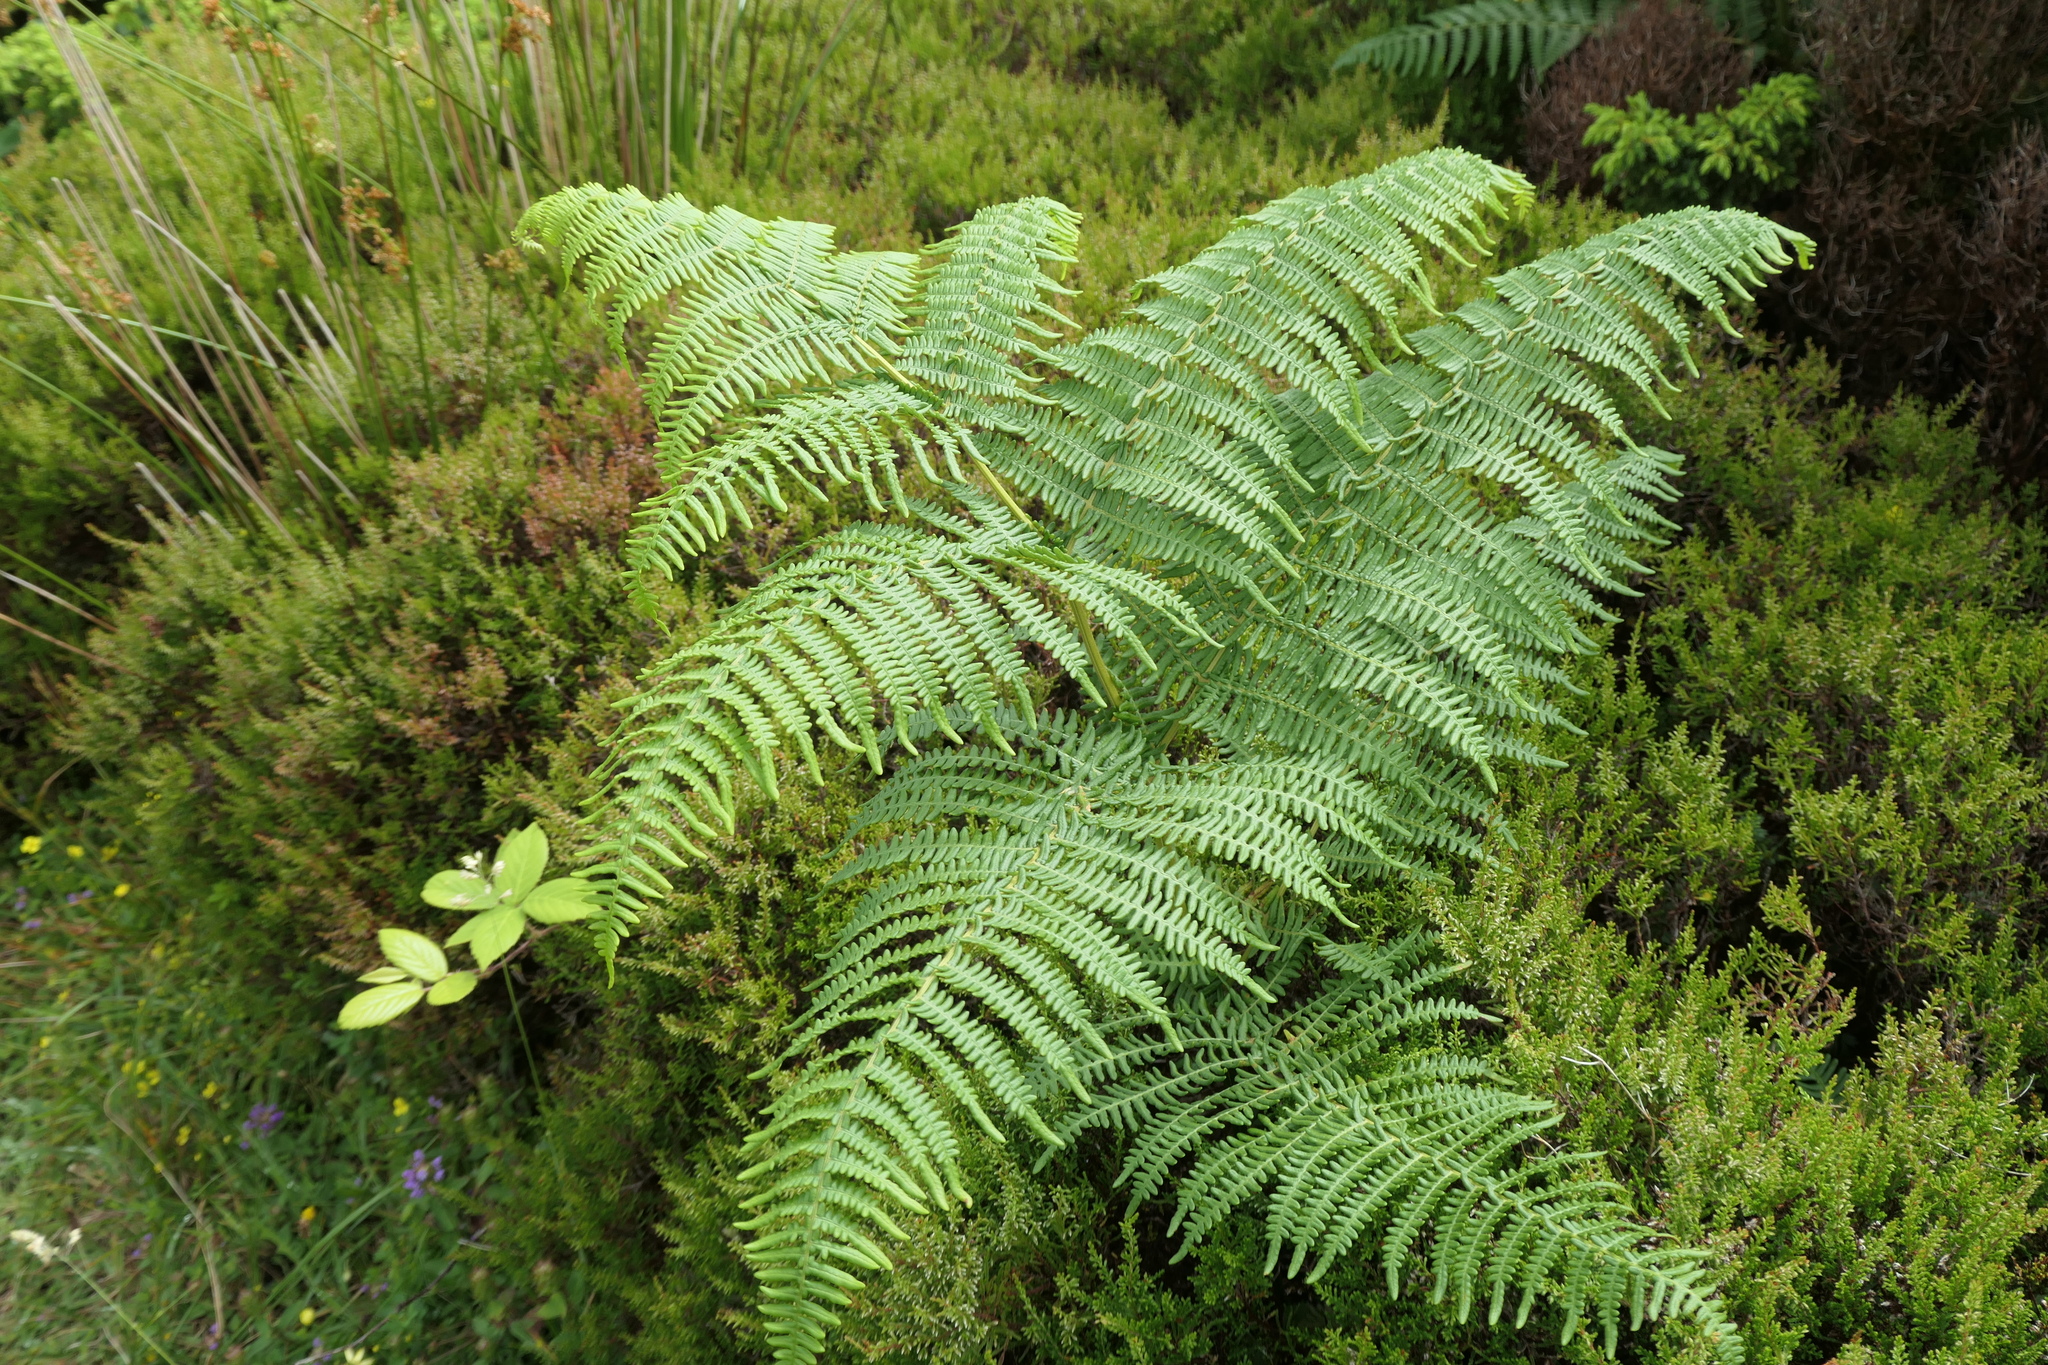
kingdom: Plantae
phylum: Tracheophyta
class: Polypodiopsida
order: Polypodiales
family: Dennstaedtiaceae
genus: Pteridium
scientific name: Pteridium aquilinum
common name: Bracken
